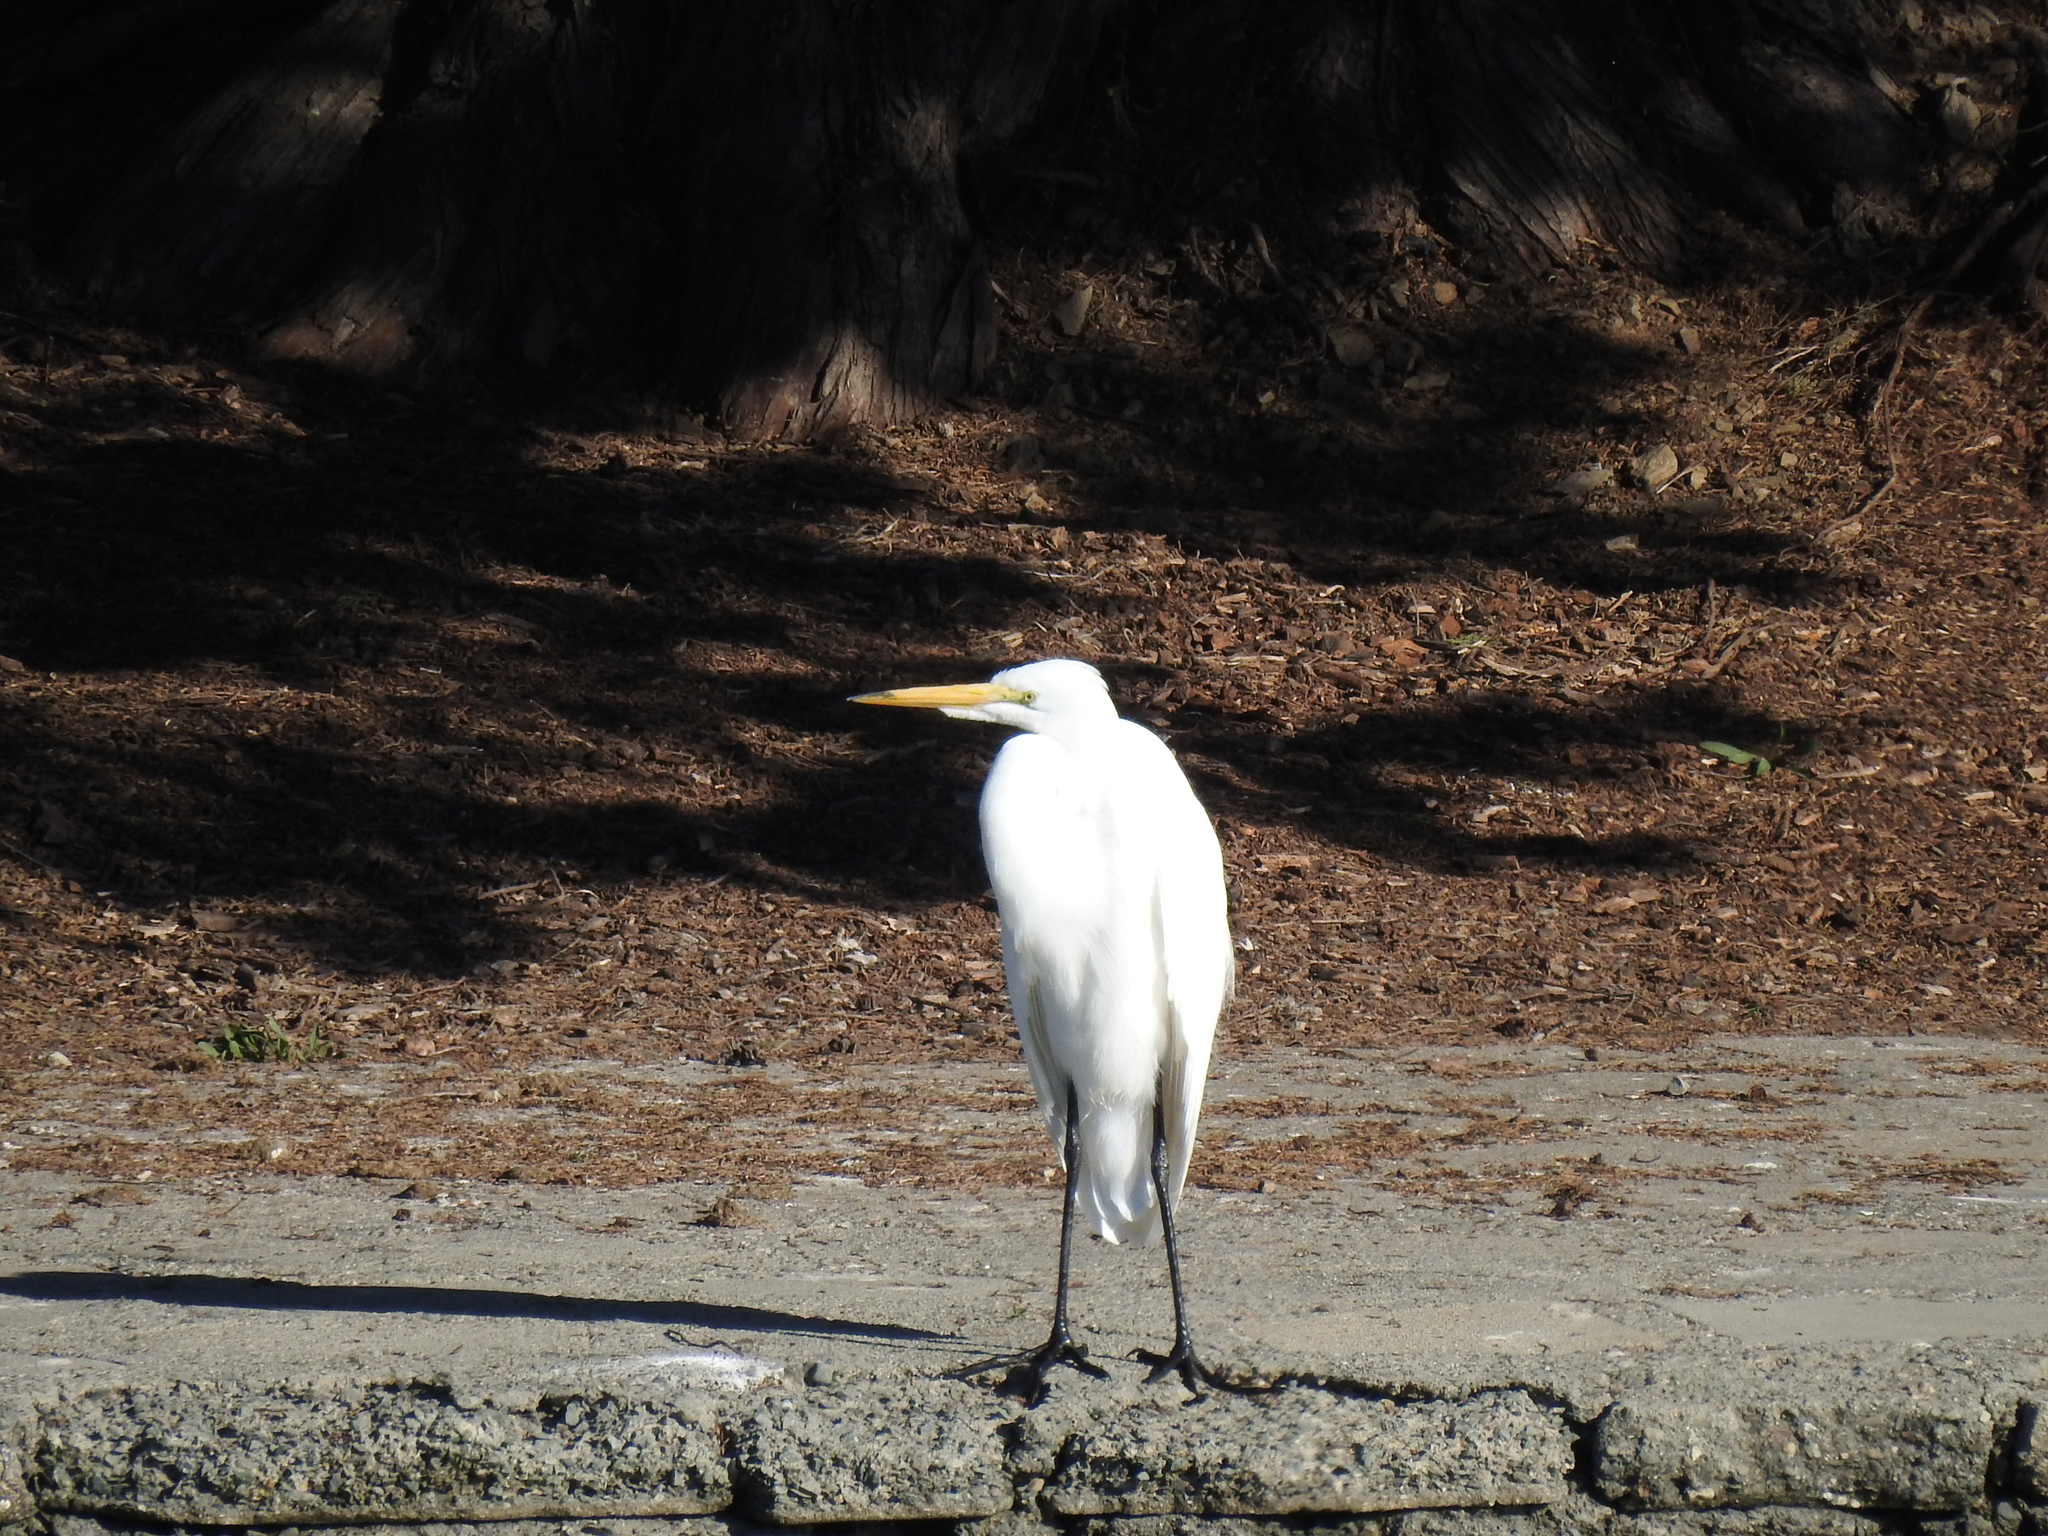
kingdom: Animalia
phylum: Chordata
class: Aves
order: Pelecaniformes
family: Ardeidae
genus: Ardea
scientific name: Ardea alba
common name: Great egret
